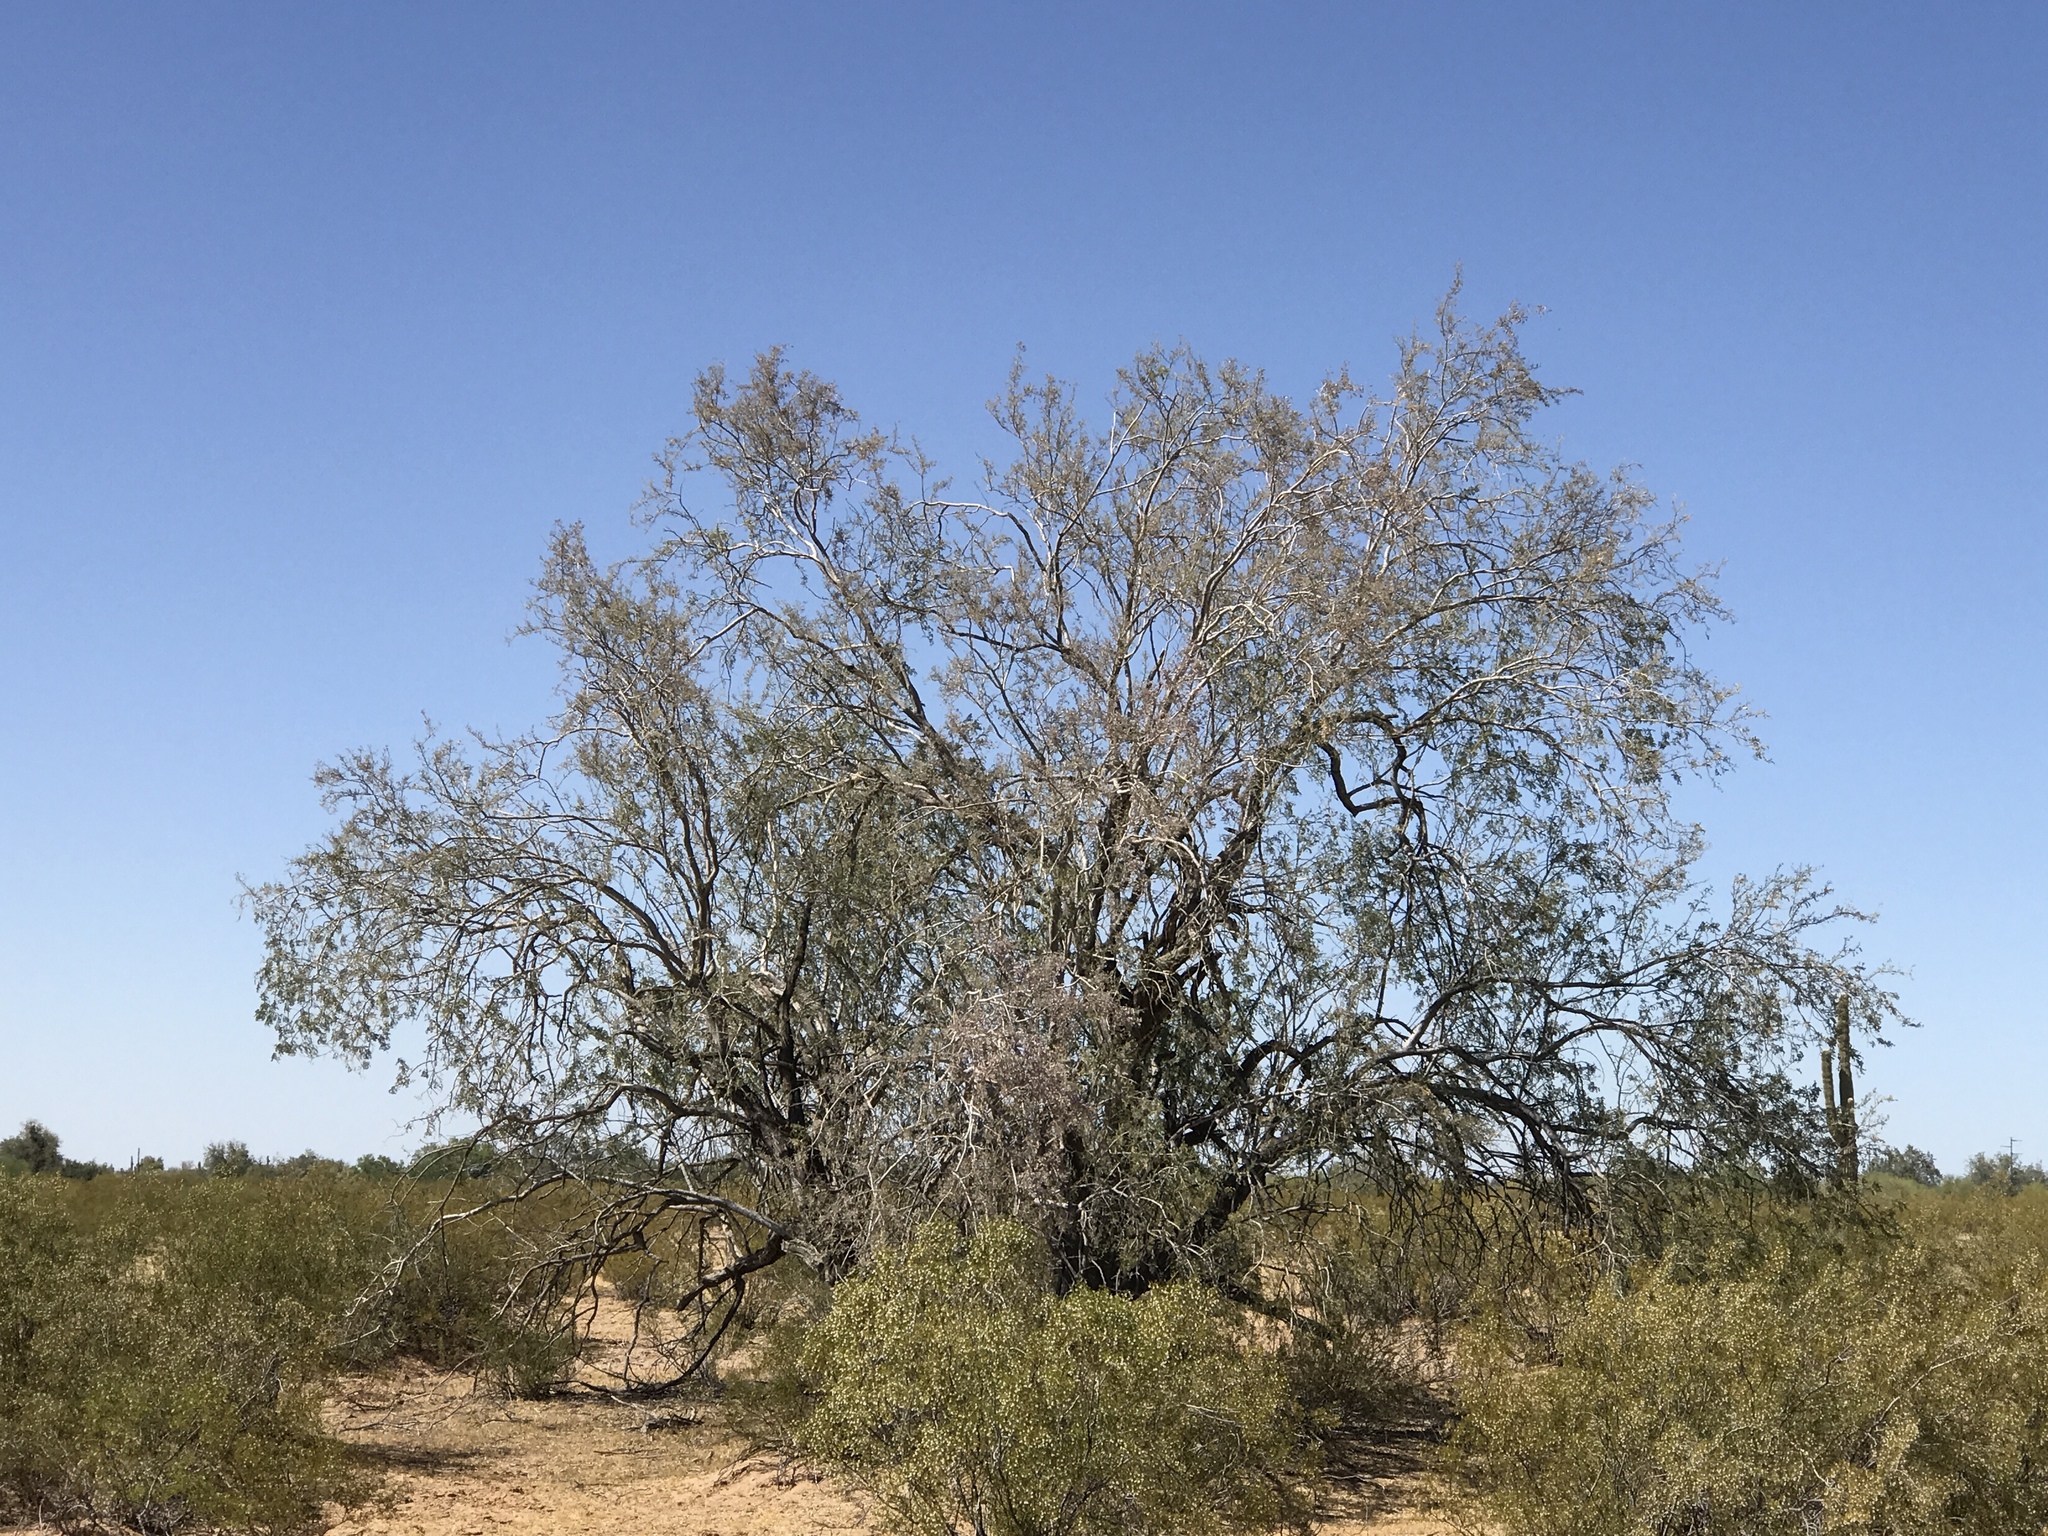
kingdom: Plantae
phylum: Tracheophyta
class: Magnoliopsida
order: Fabales
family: Fabaceae
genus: Olneya
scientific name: Olneya tesota
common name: Desert ironwood
